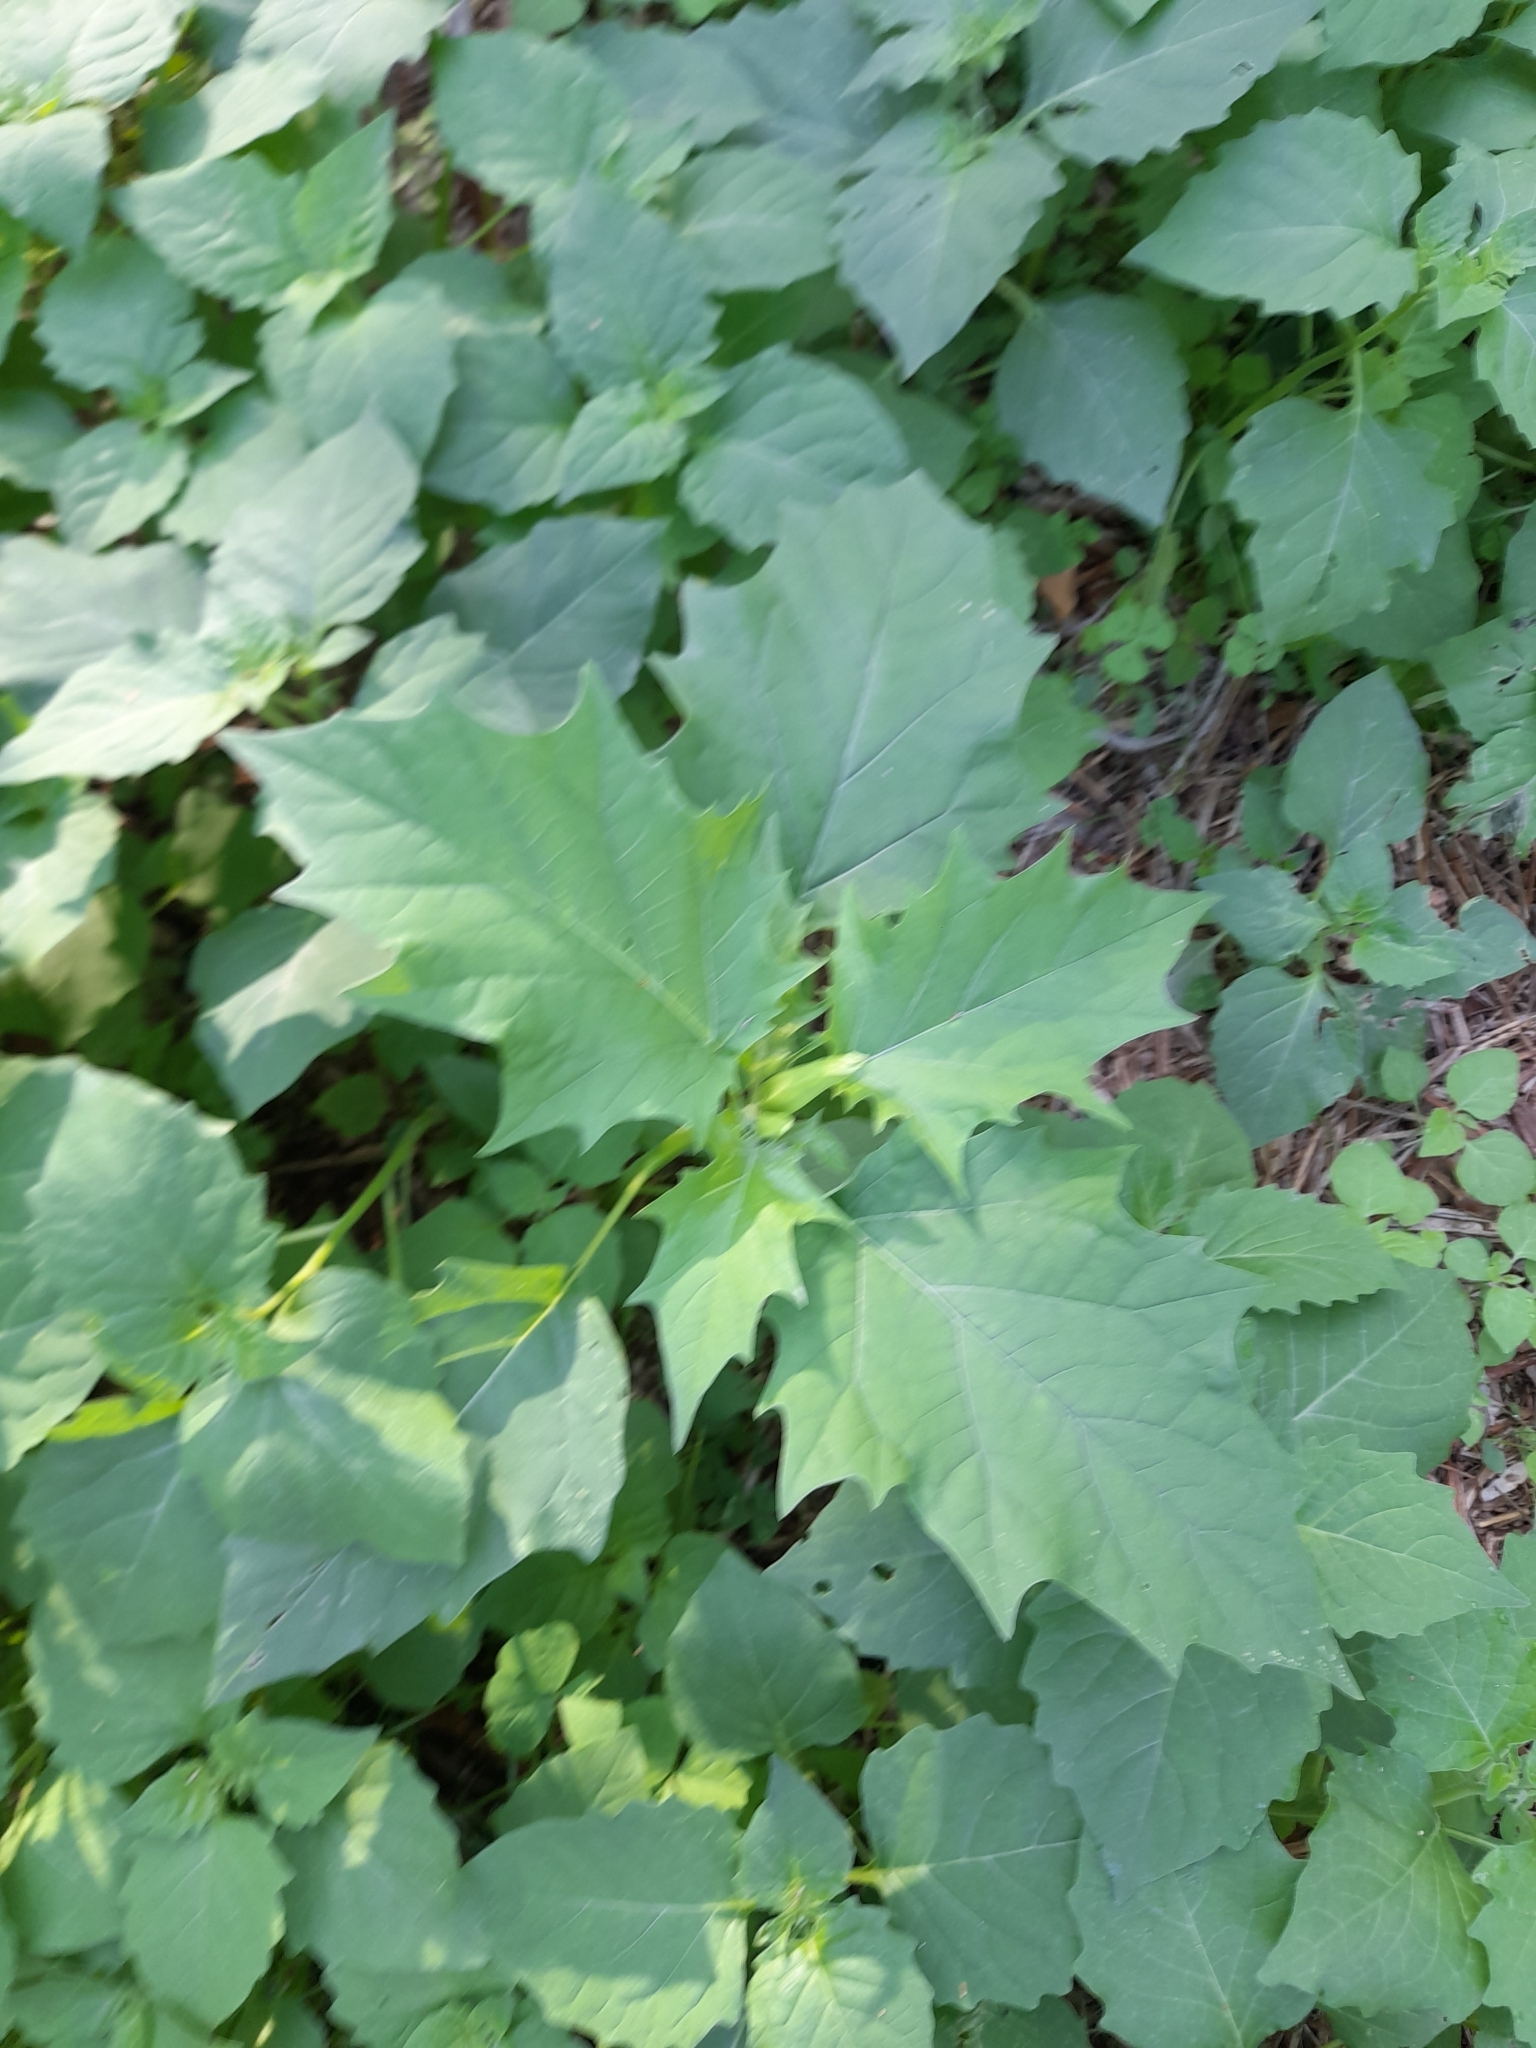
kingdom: Plantae
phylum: Tracheophyta
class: Magnoliopsida
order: Solanales
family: Solanaceae
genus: Datura
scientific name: Datura stramonium
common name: Thorn-apple
